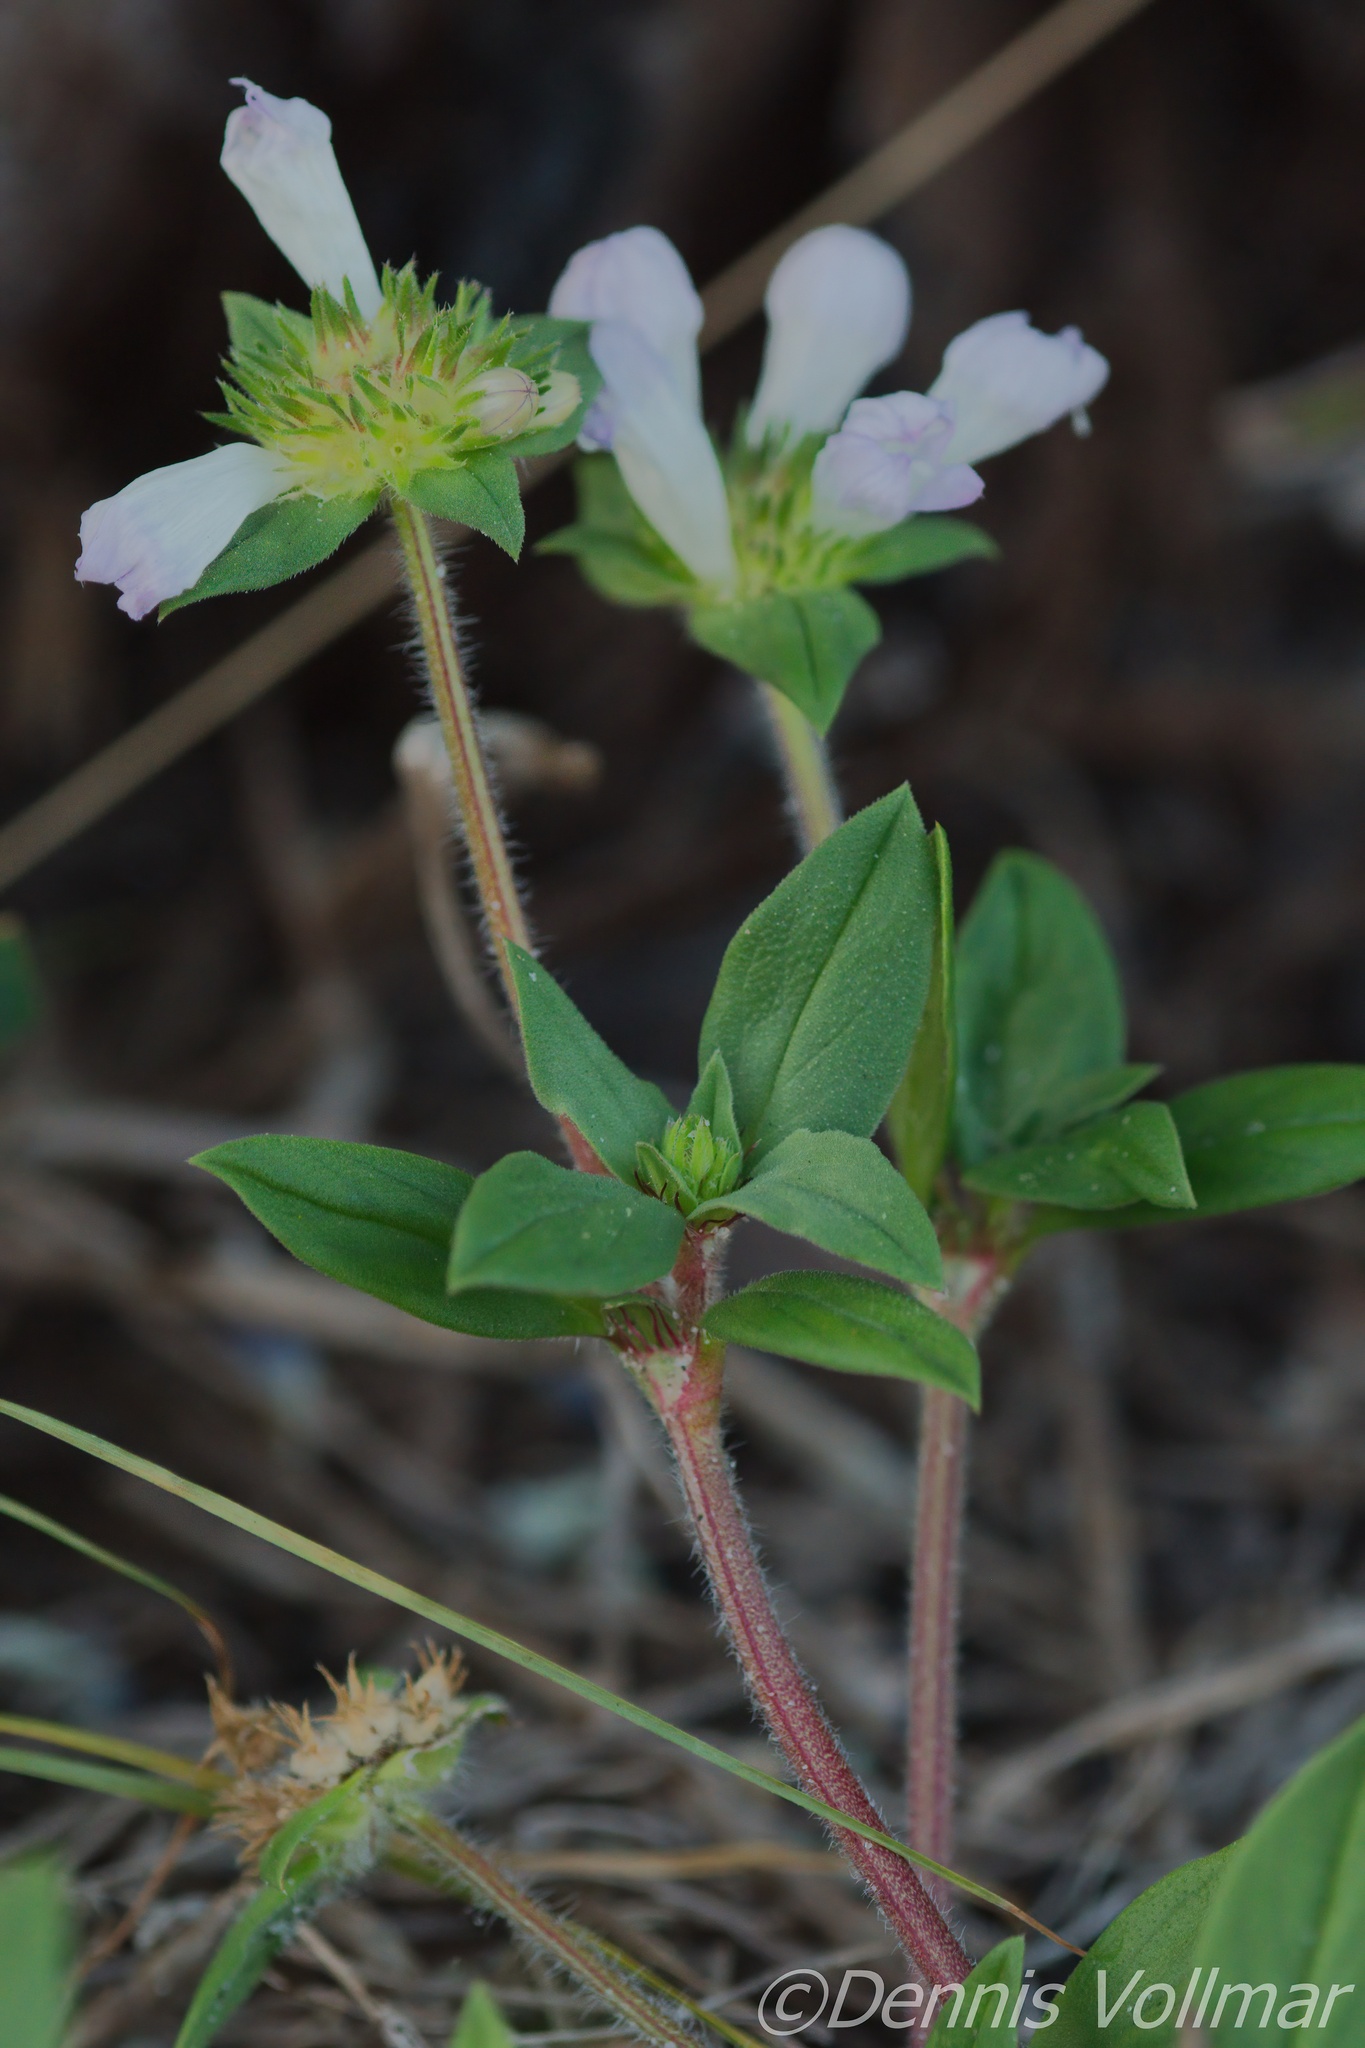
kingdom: Plantae
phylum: Tracheophyta
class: Magnoliopsida
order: Gentianales
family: Rubiaceae
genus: Richardia
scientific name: Richardia grandiflora
